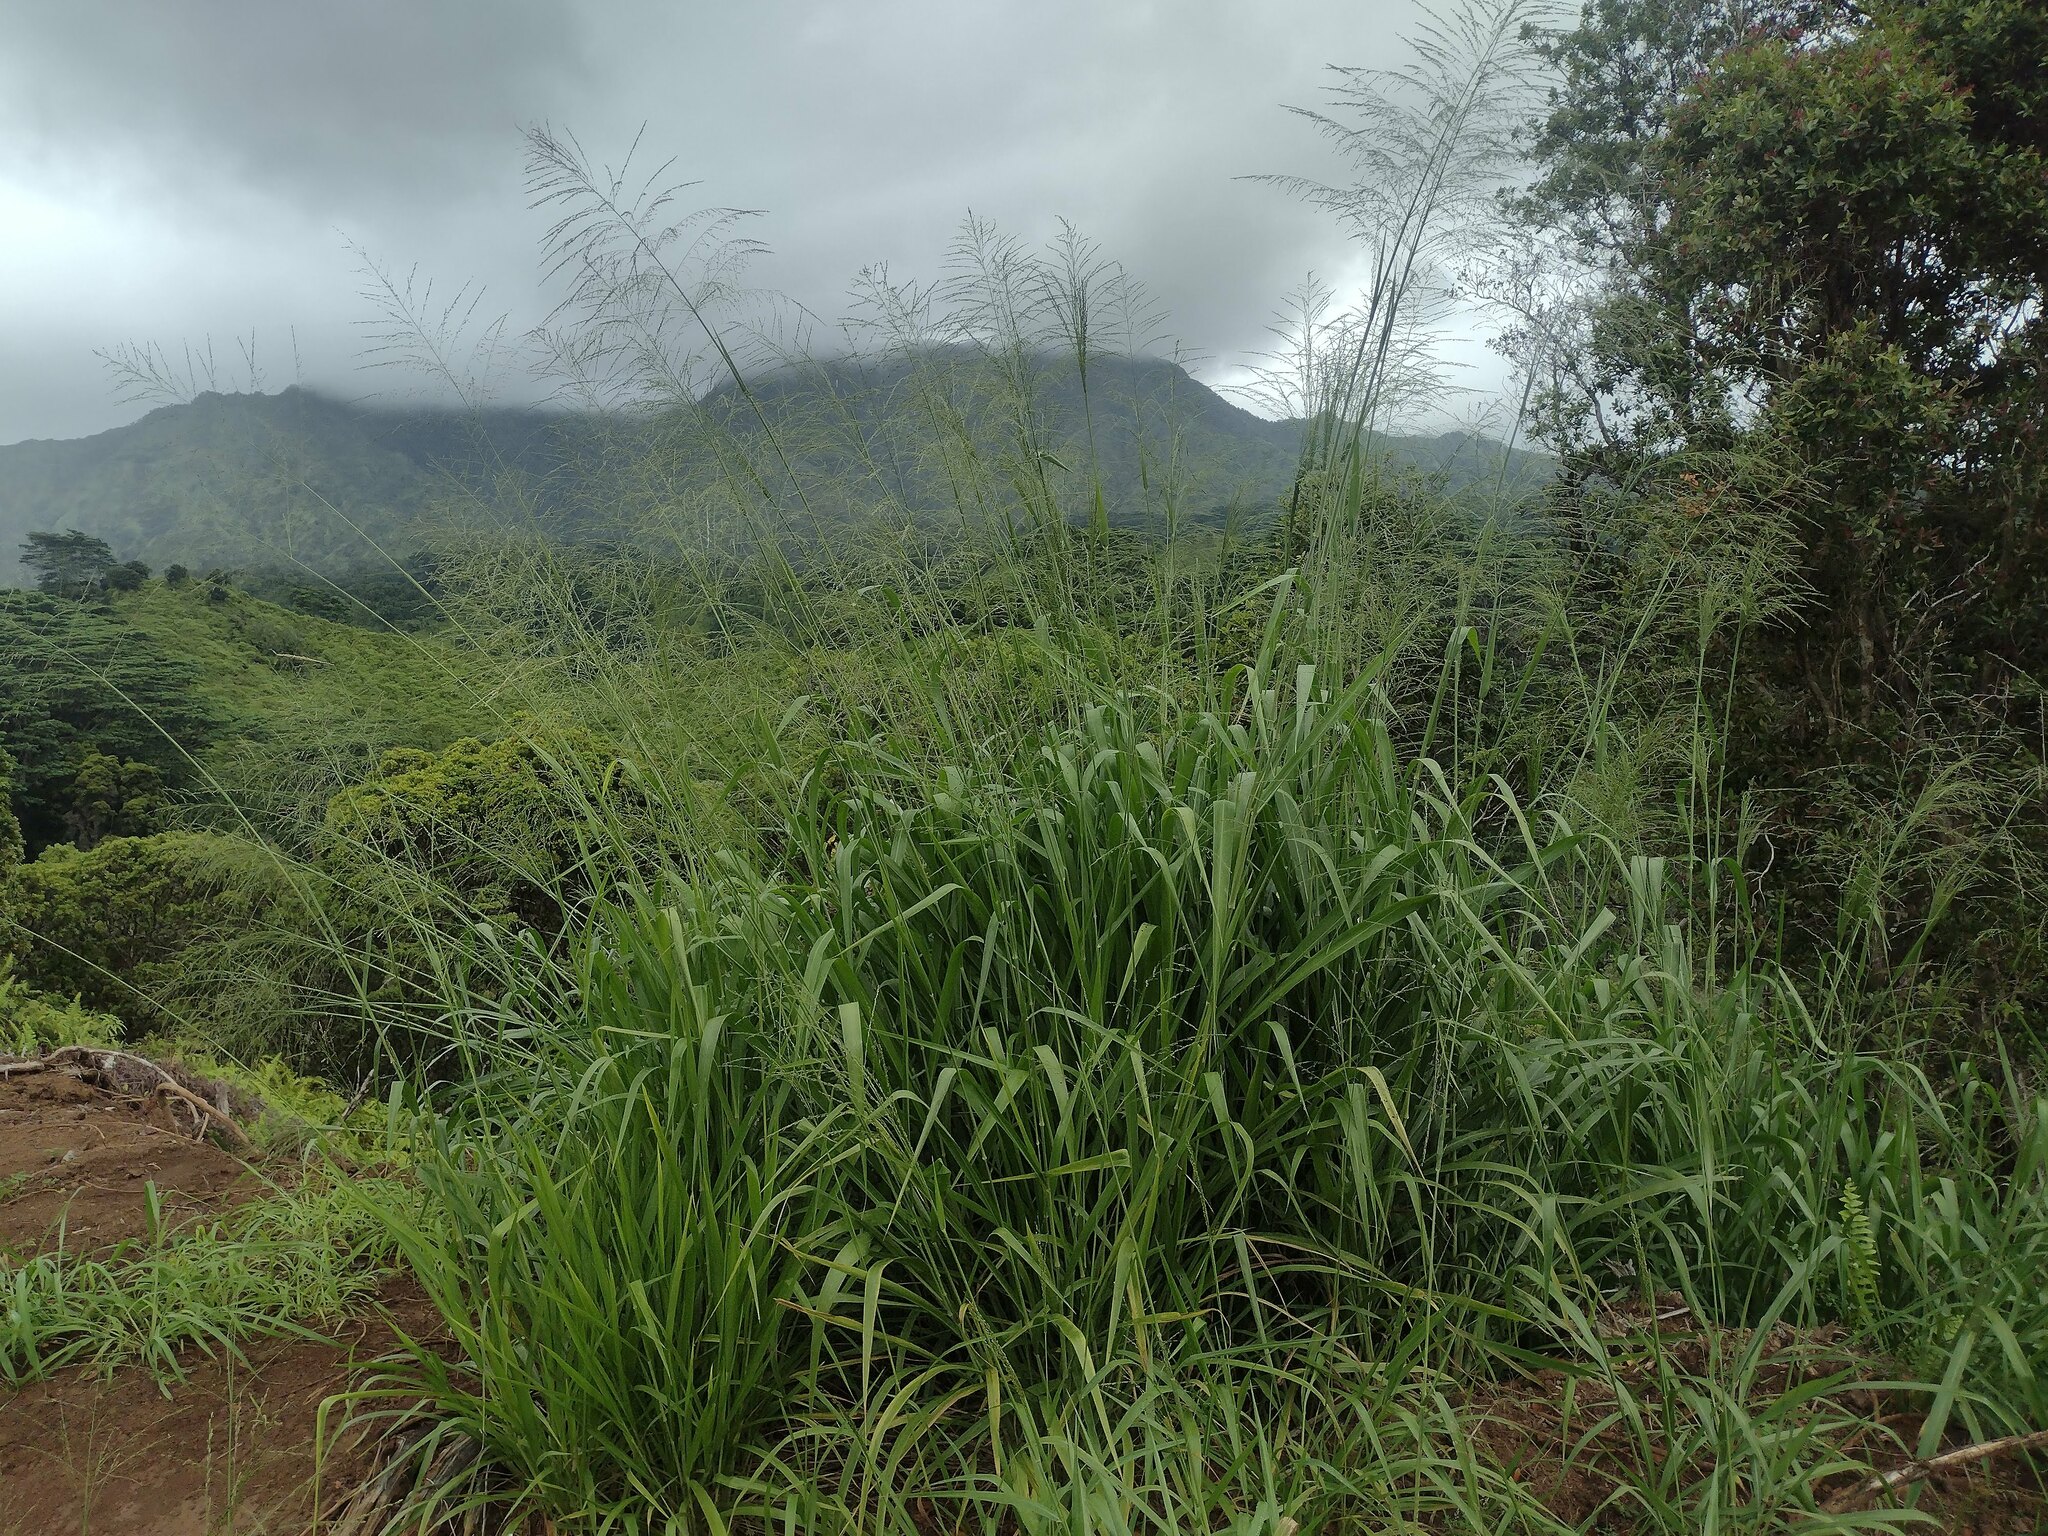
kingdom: Plantae
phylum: Tracheophyta
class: Liliopsida
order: Poales
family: Poaceae
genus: Megathyrsus
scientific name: Megathyrsus maximus
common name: Guineagrass
